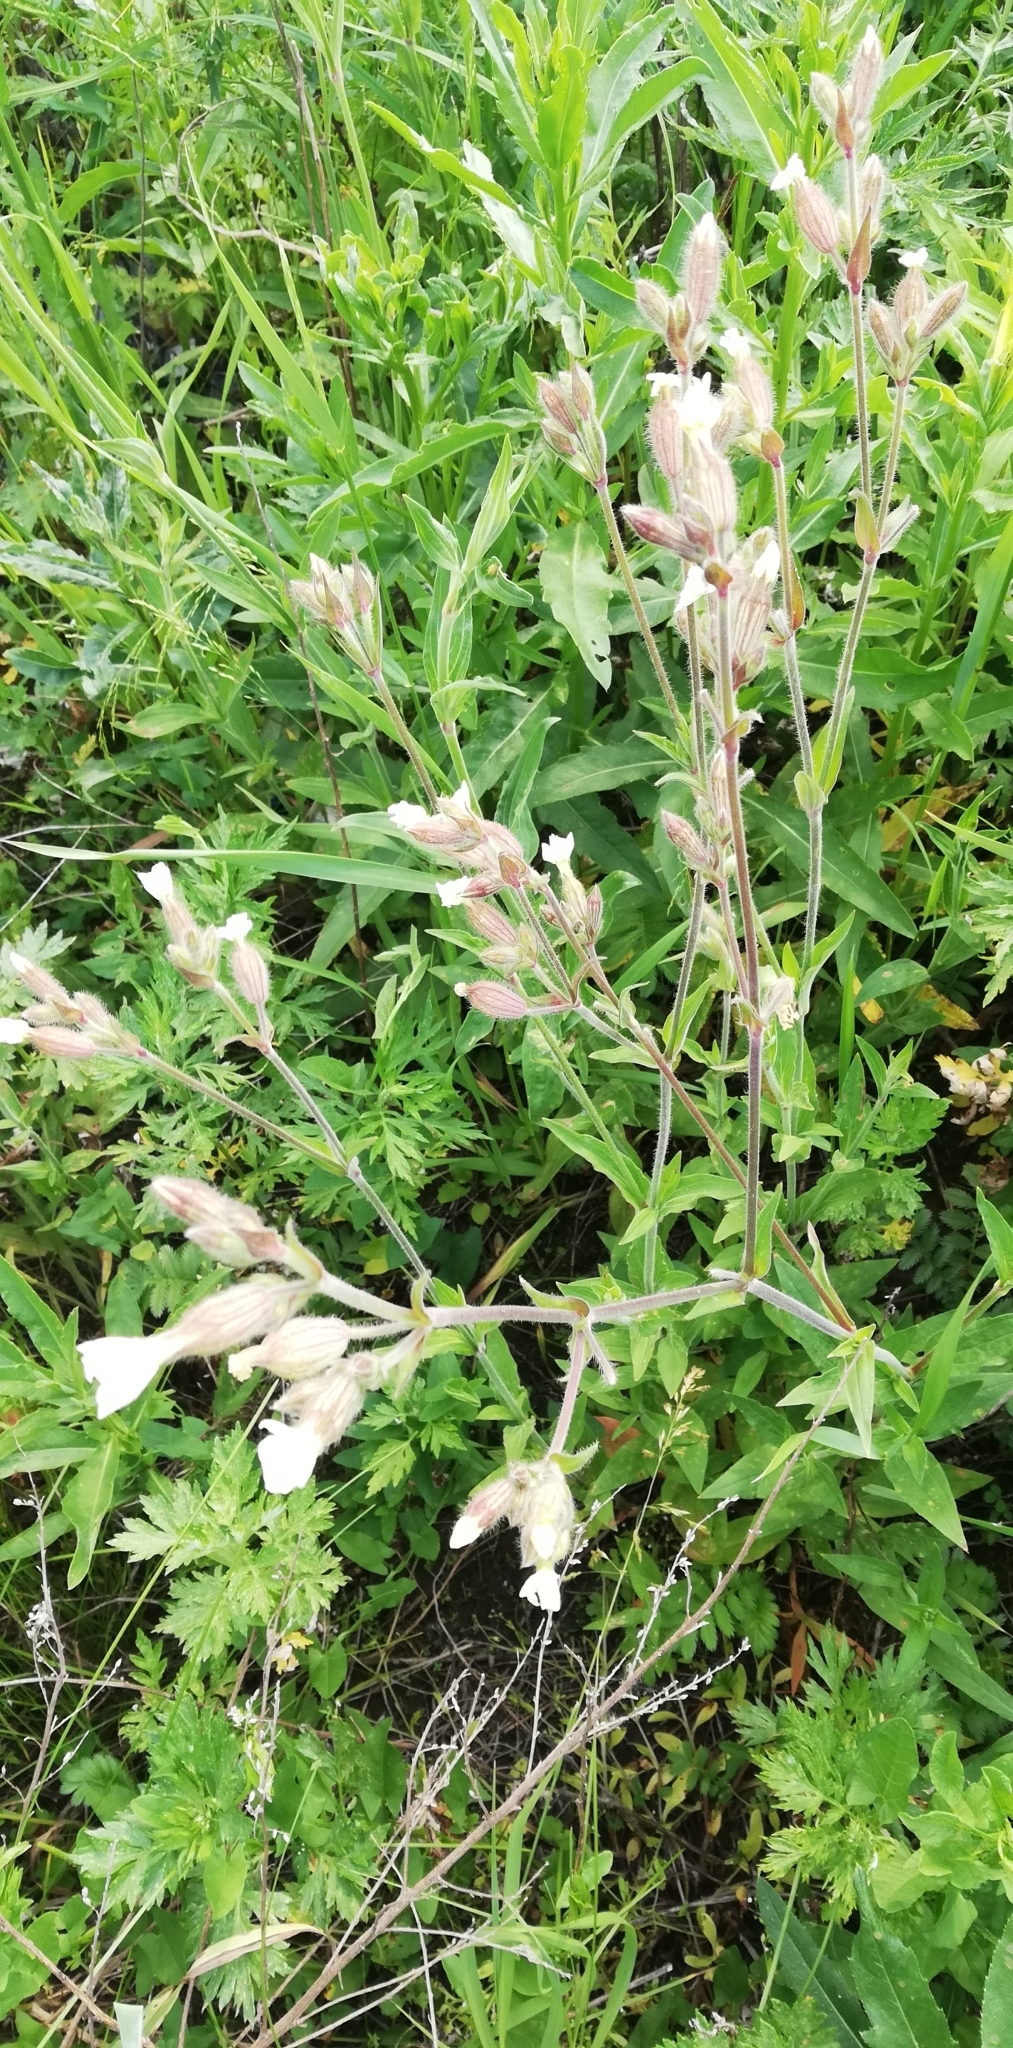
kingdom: Plantae
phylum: Tracheophyta
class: Magnoliopsida
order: Caryophyllales
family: Caryophyllaceae
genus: Silene
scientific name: Silene latifolia
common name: White campion
